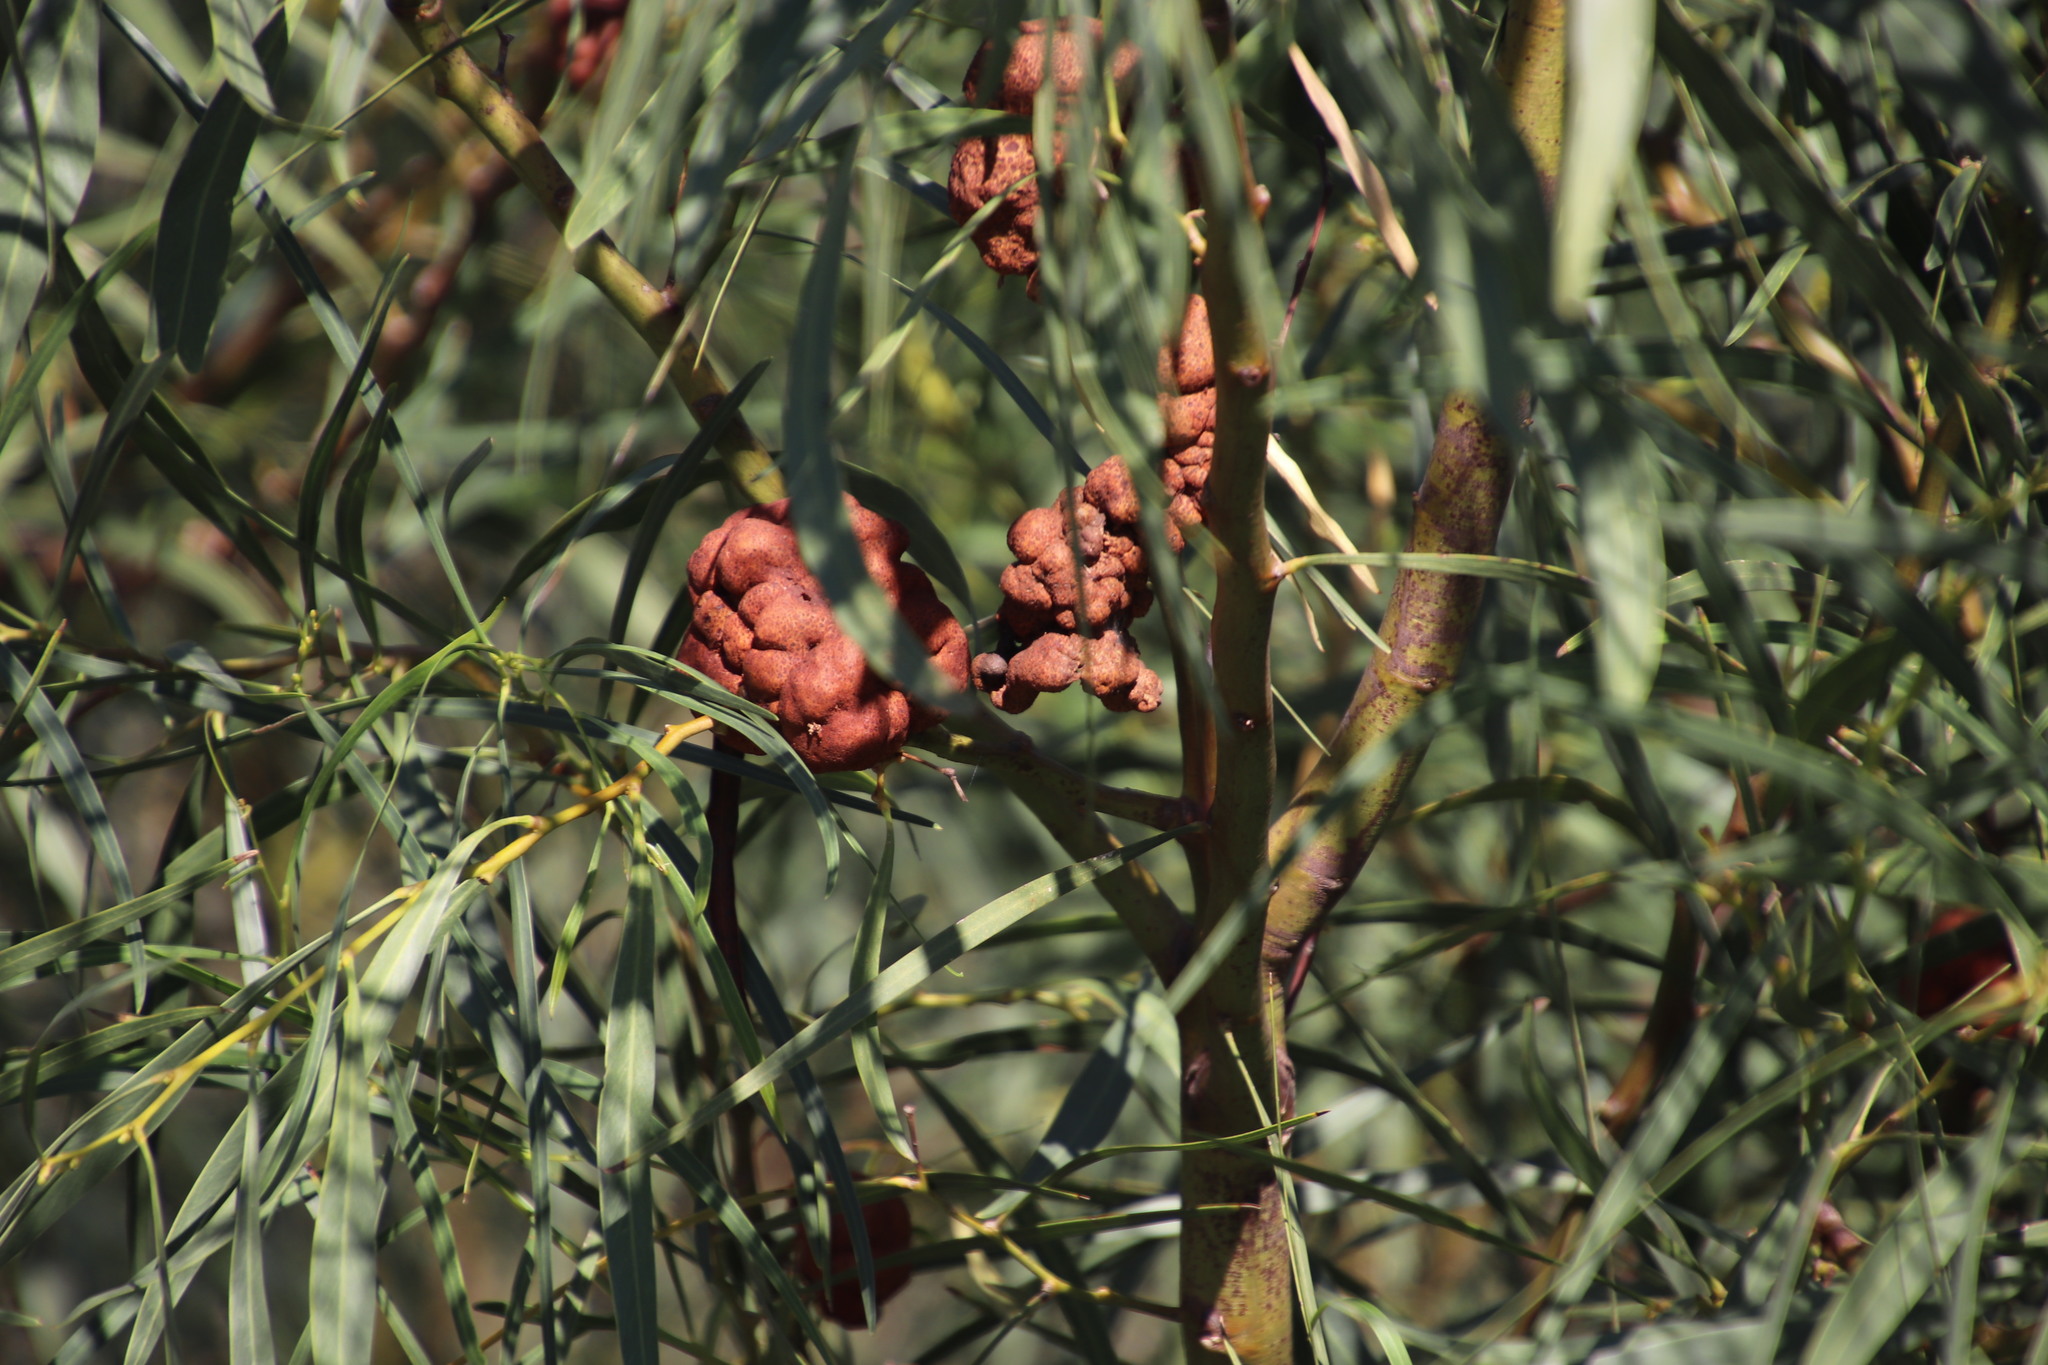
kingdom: Fungi
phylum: Basidiomycota
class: Pucciniomycetes
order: Pucciniales
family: Uromycladiaceae
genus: Uromycladium
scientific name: Uromycladium morrisii
